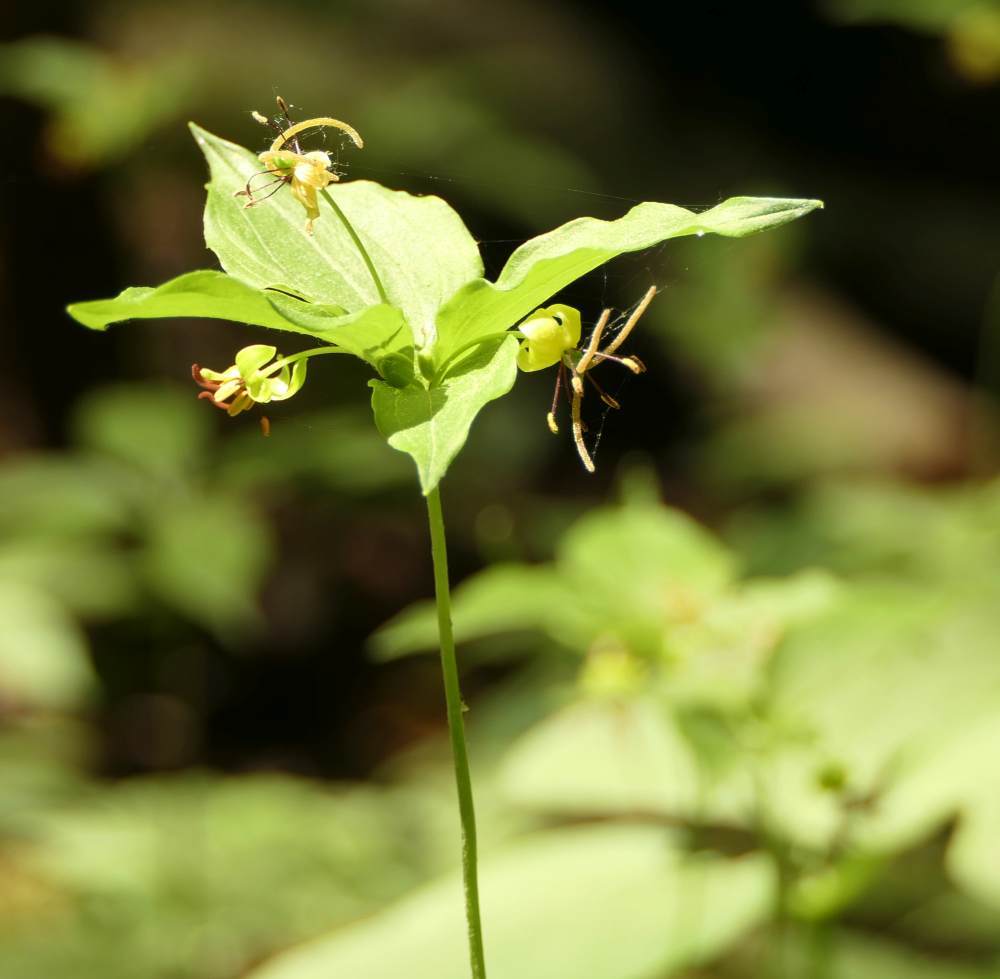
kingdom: Plantae
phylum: Tracheophyta
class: Liliopsida
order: Liliales
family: Liliaceae
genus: Medeola
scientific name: Medeola virginiana
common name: Indian cucumber-root
